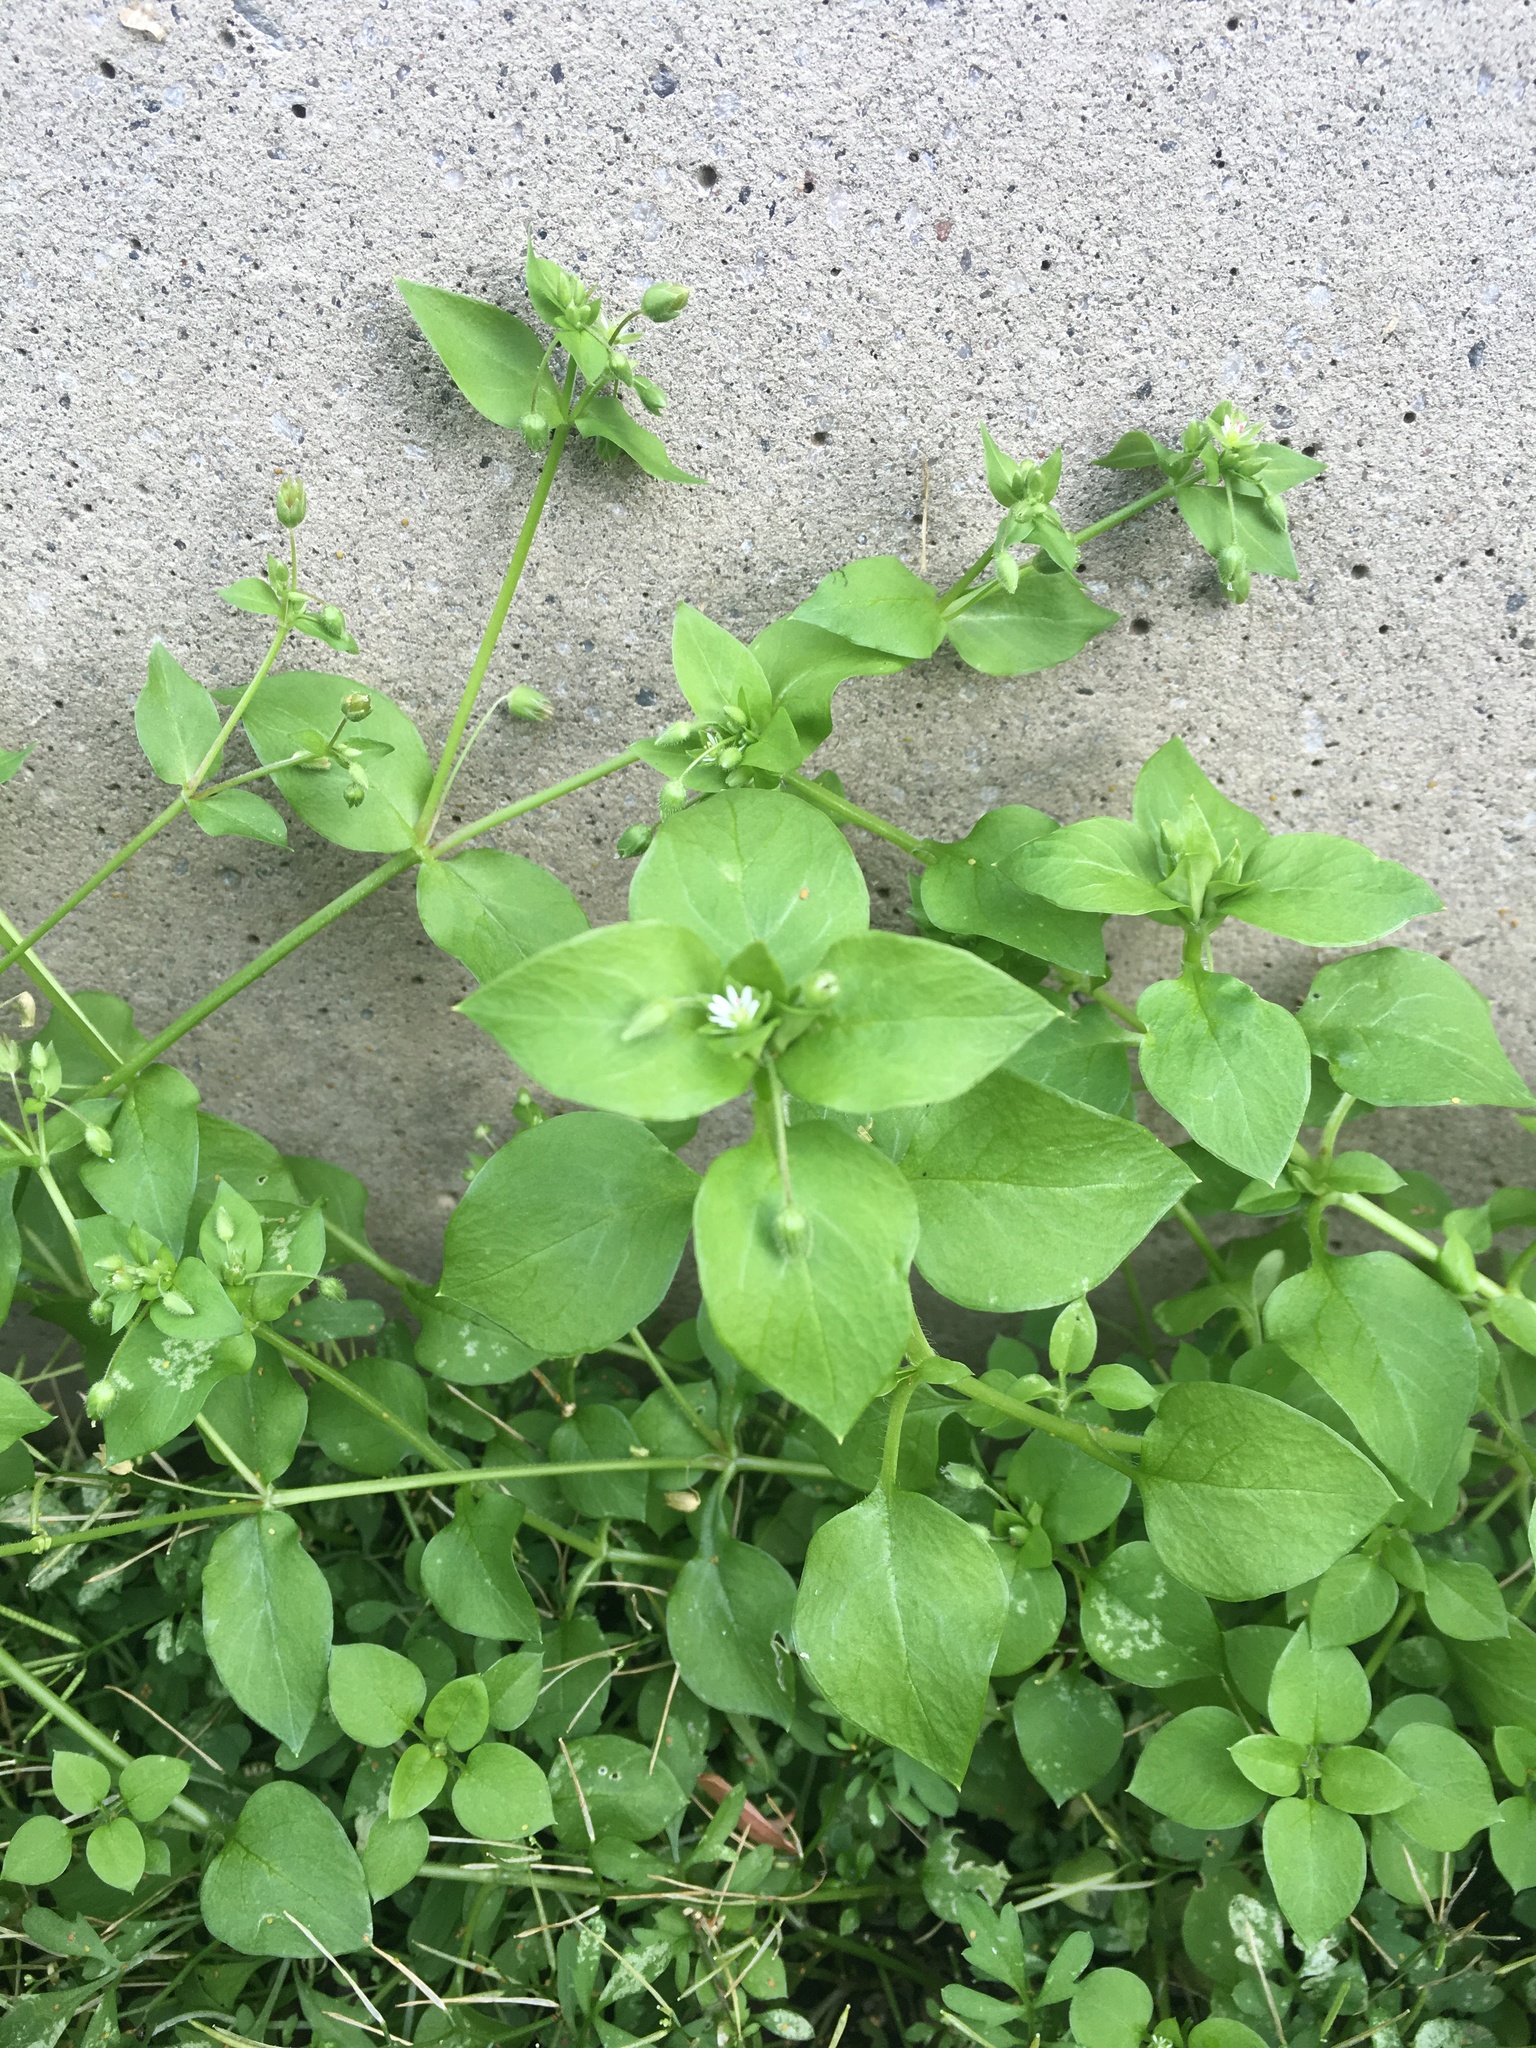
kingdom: Plantae
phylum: Tracheophyta
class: Magnoliopsida
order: Caryophyllales
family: Caryophyllaceae
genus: Stellaria
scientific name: Stellaria media
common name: Common chickweed
